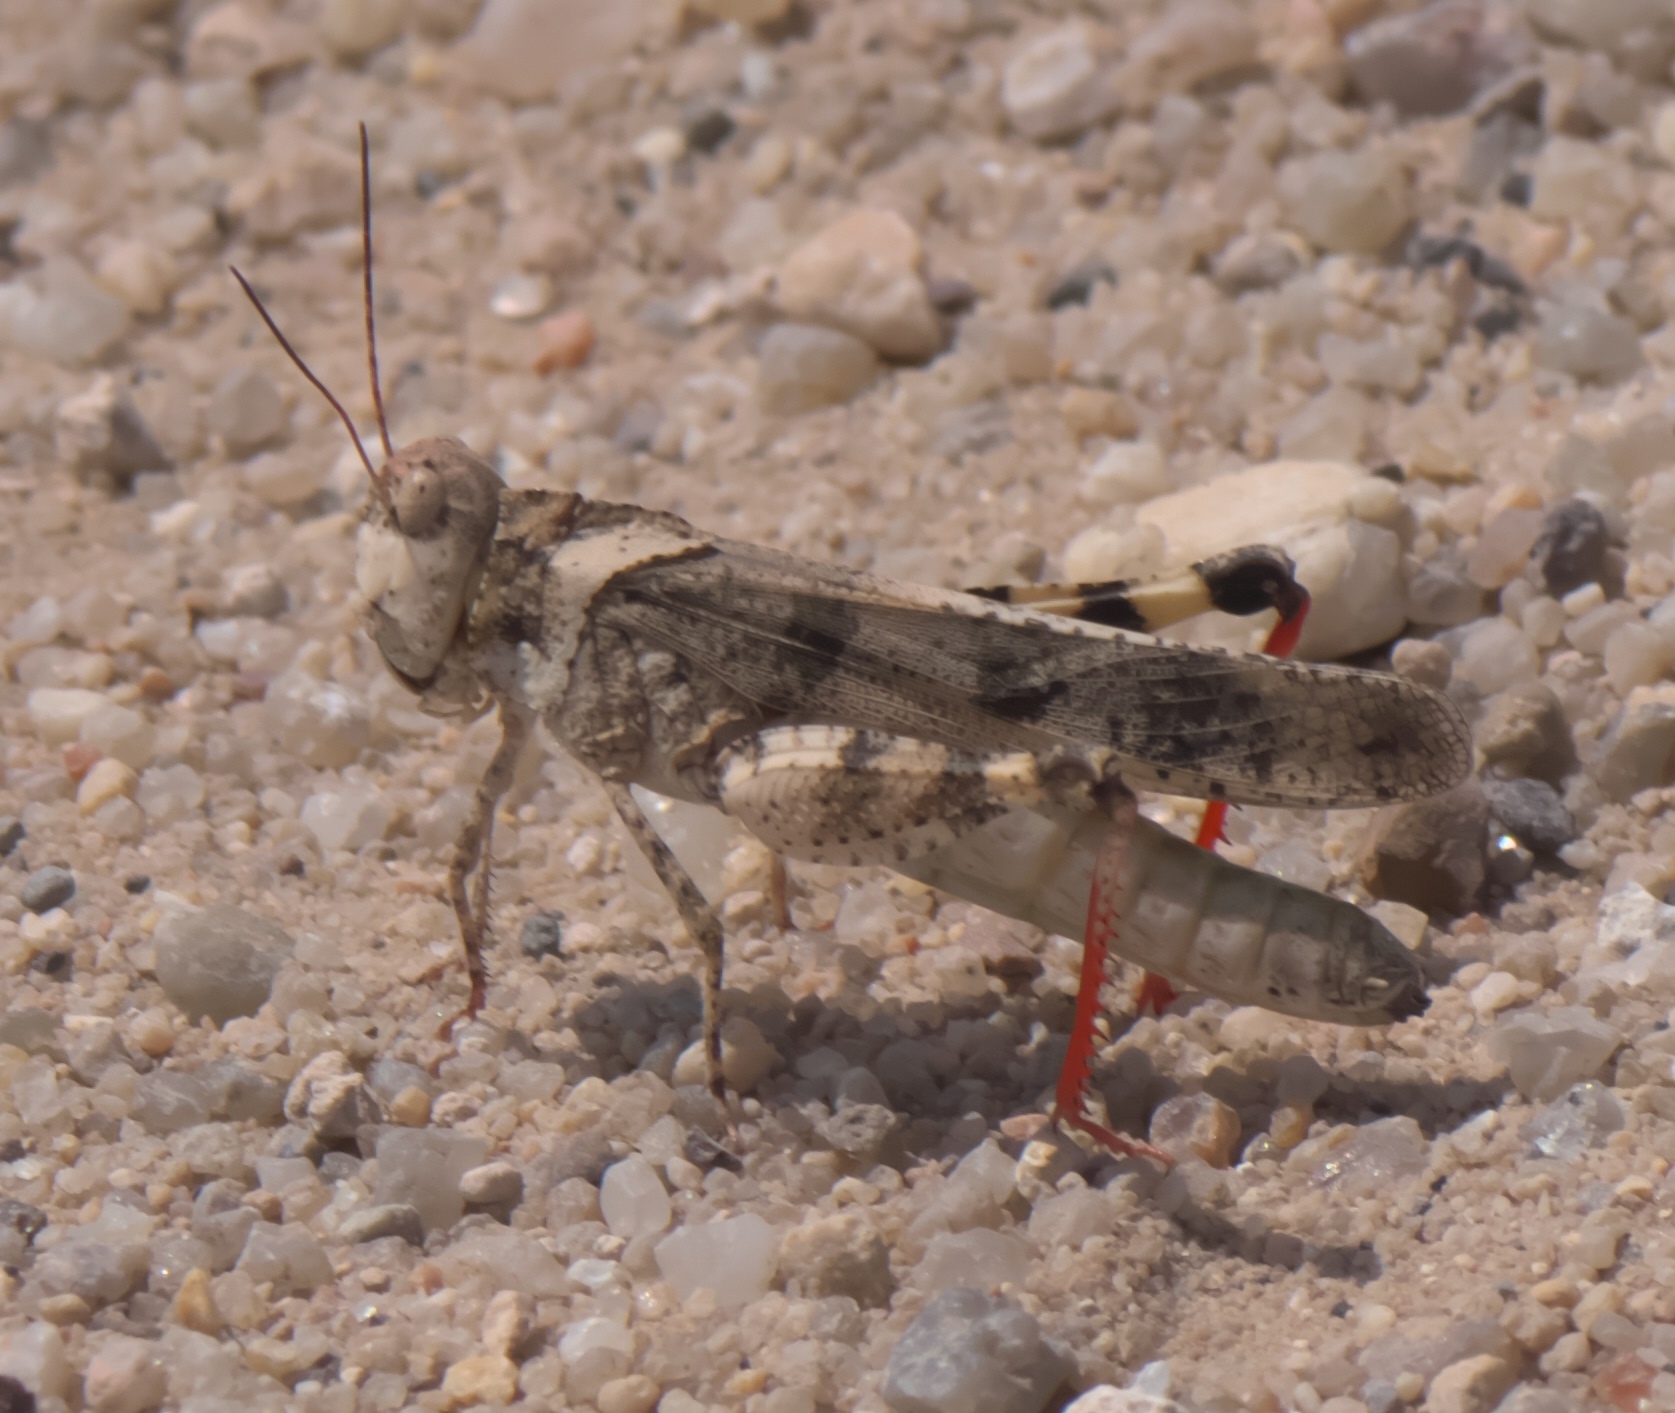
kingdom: Animalia
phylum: Arthropoda
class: Insecta
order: Orthoptera
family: Acrididae
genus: Spharagemon
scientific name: Spharagemon collare
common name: Mottled sand grasshopper
